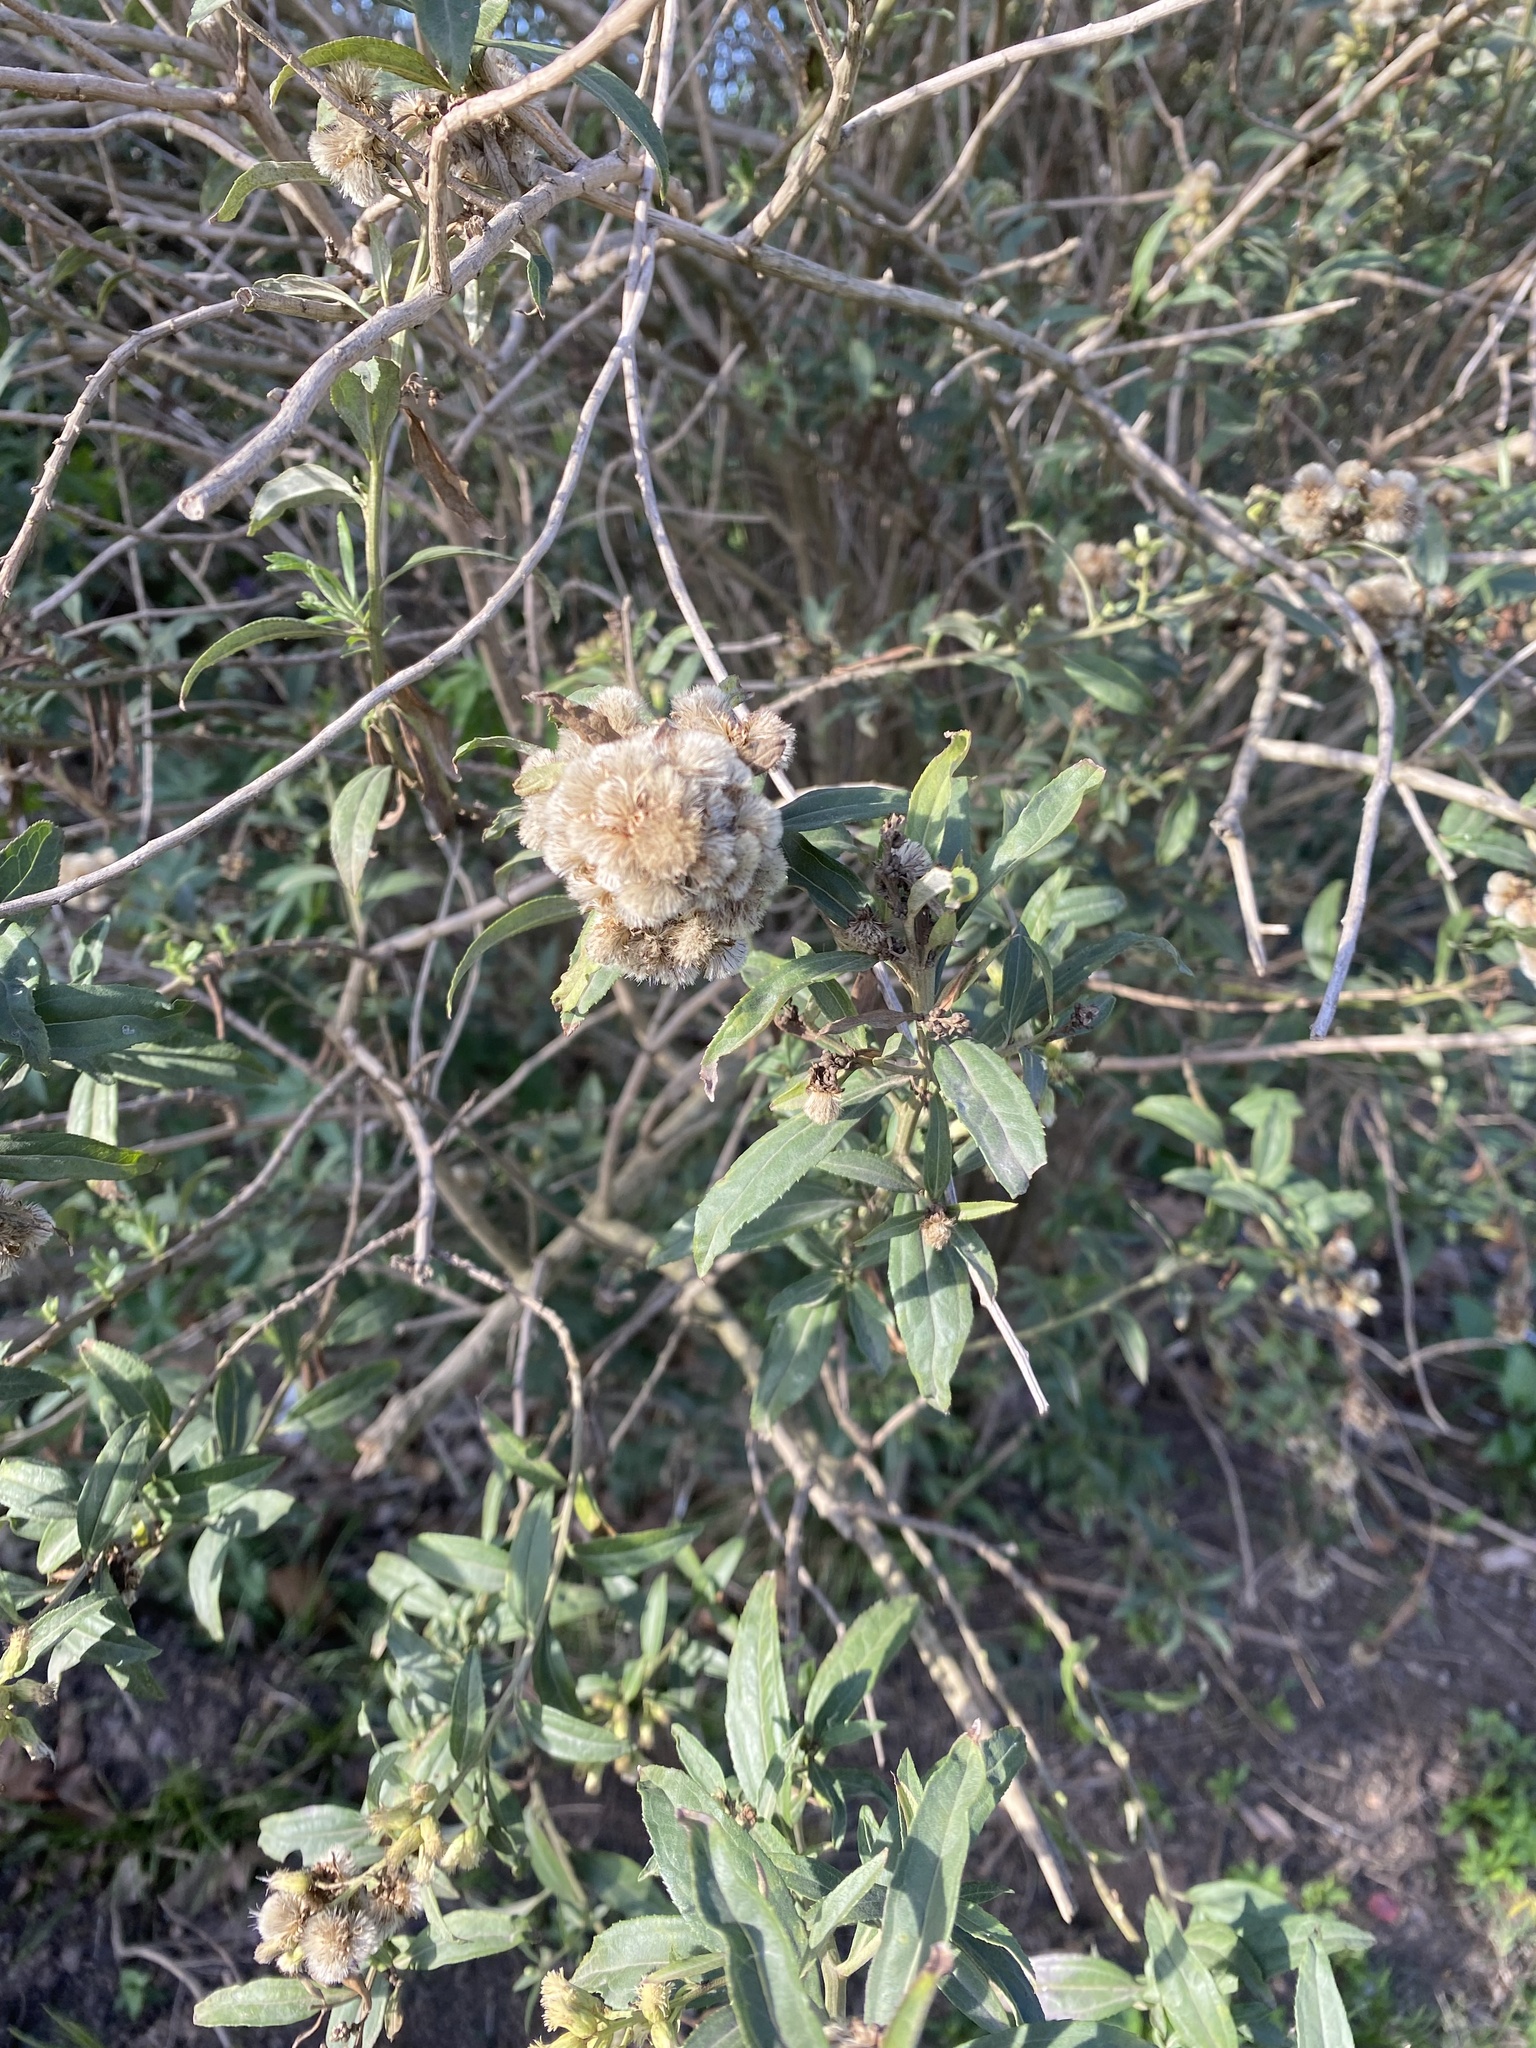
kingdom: Plantae
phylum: Tracheophyta
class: Magnoliopsida
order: Asterales
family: Asteraceae
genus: Baccharis
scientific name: Baccharis punctulata
